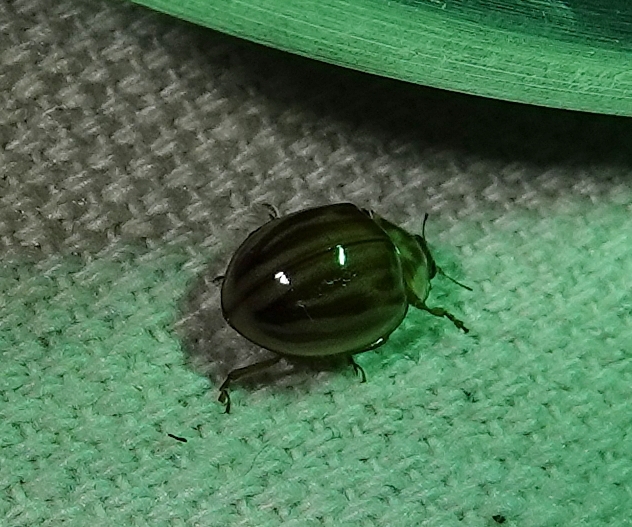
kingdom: Animalia
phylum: Arthropoda
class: Insecta
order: Coleoptera
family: Coccinellidae
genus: Myzia
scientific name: Myzia interrupta
